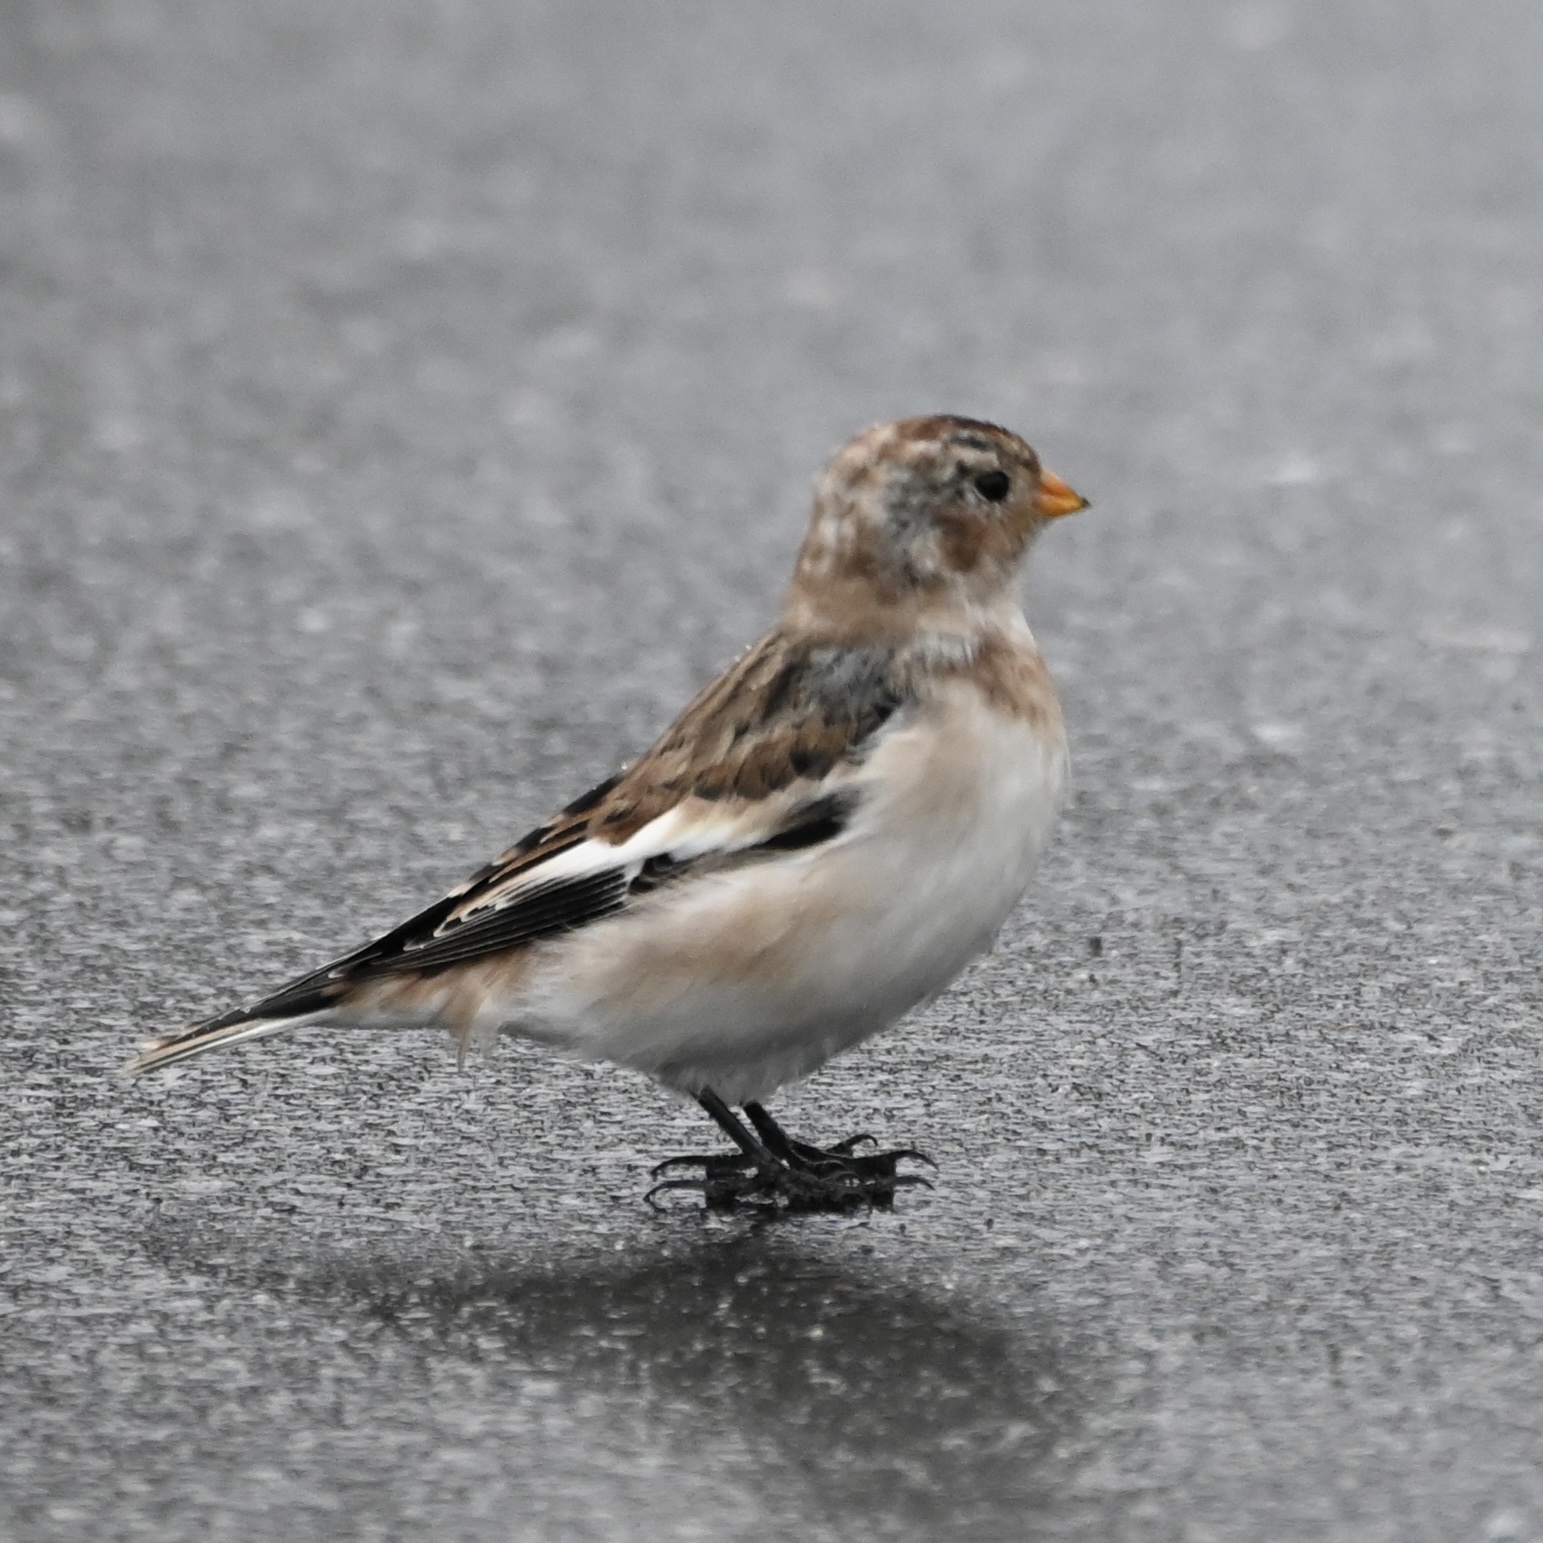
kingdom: Animalia
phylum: Chordata
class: Aves
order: Passeriformes
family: Calcariidae
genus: Plectrophenax
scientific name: Plectrophenax nivalis
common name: Snow bunting
